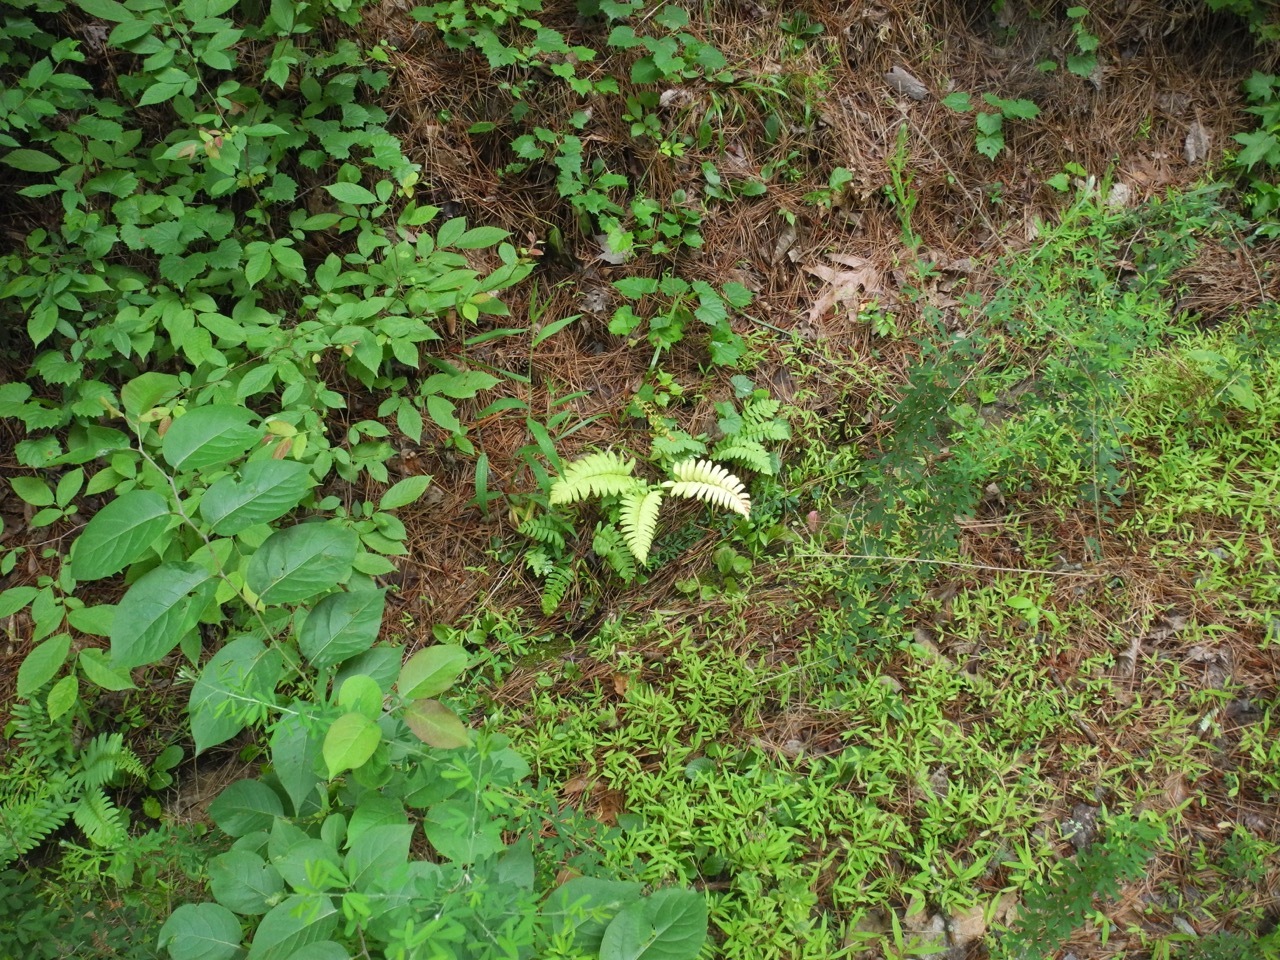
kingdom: Plantae
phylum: Tracheophyta
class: Polypodiopsida
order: Polypodiales
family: Dryopteridaceae
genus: Polystichum
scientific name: Polystichum acrostichoides
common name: Christmas fern
